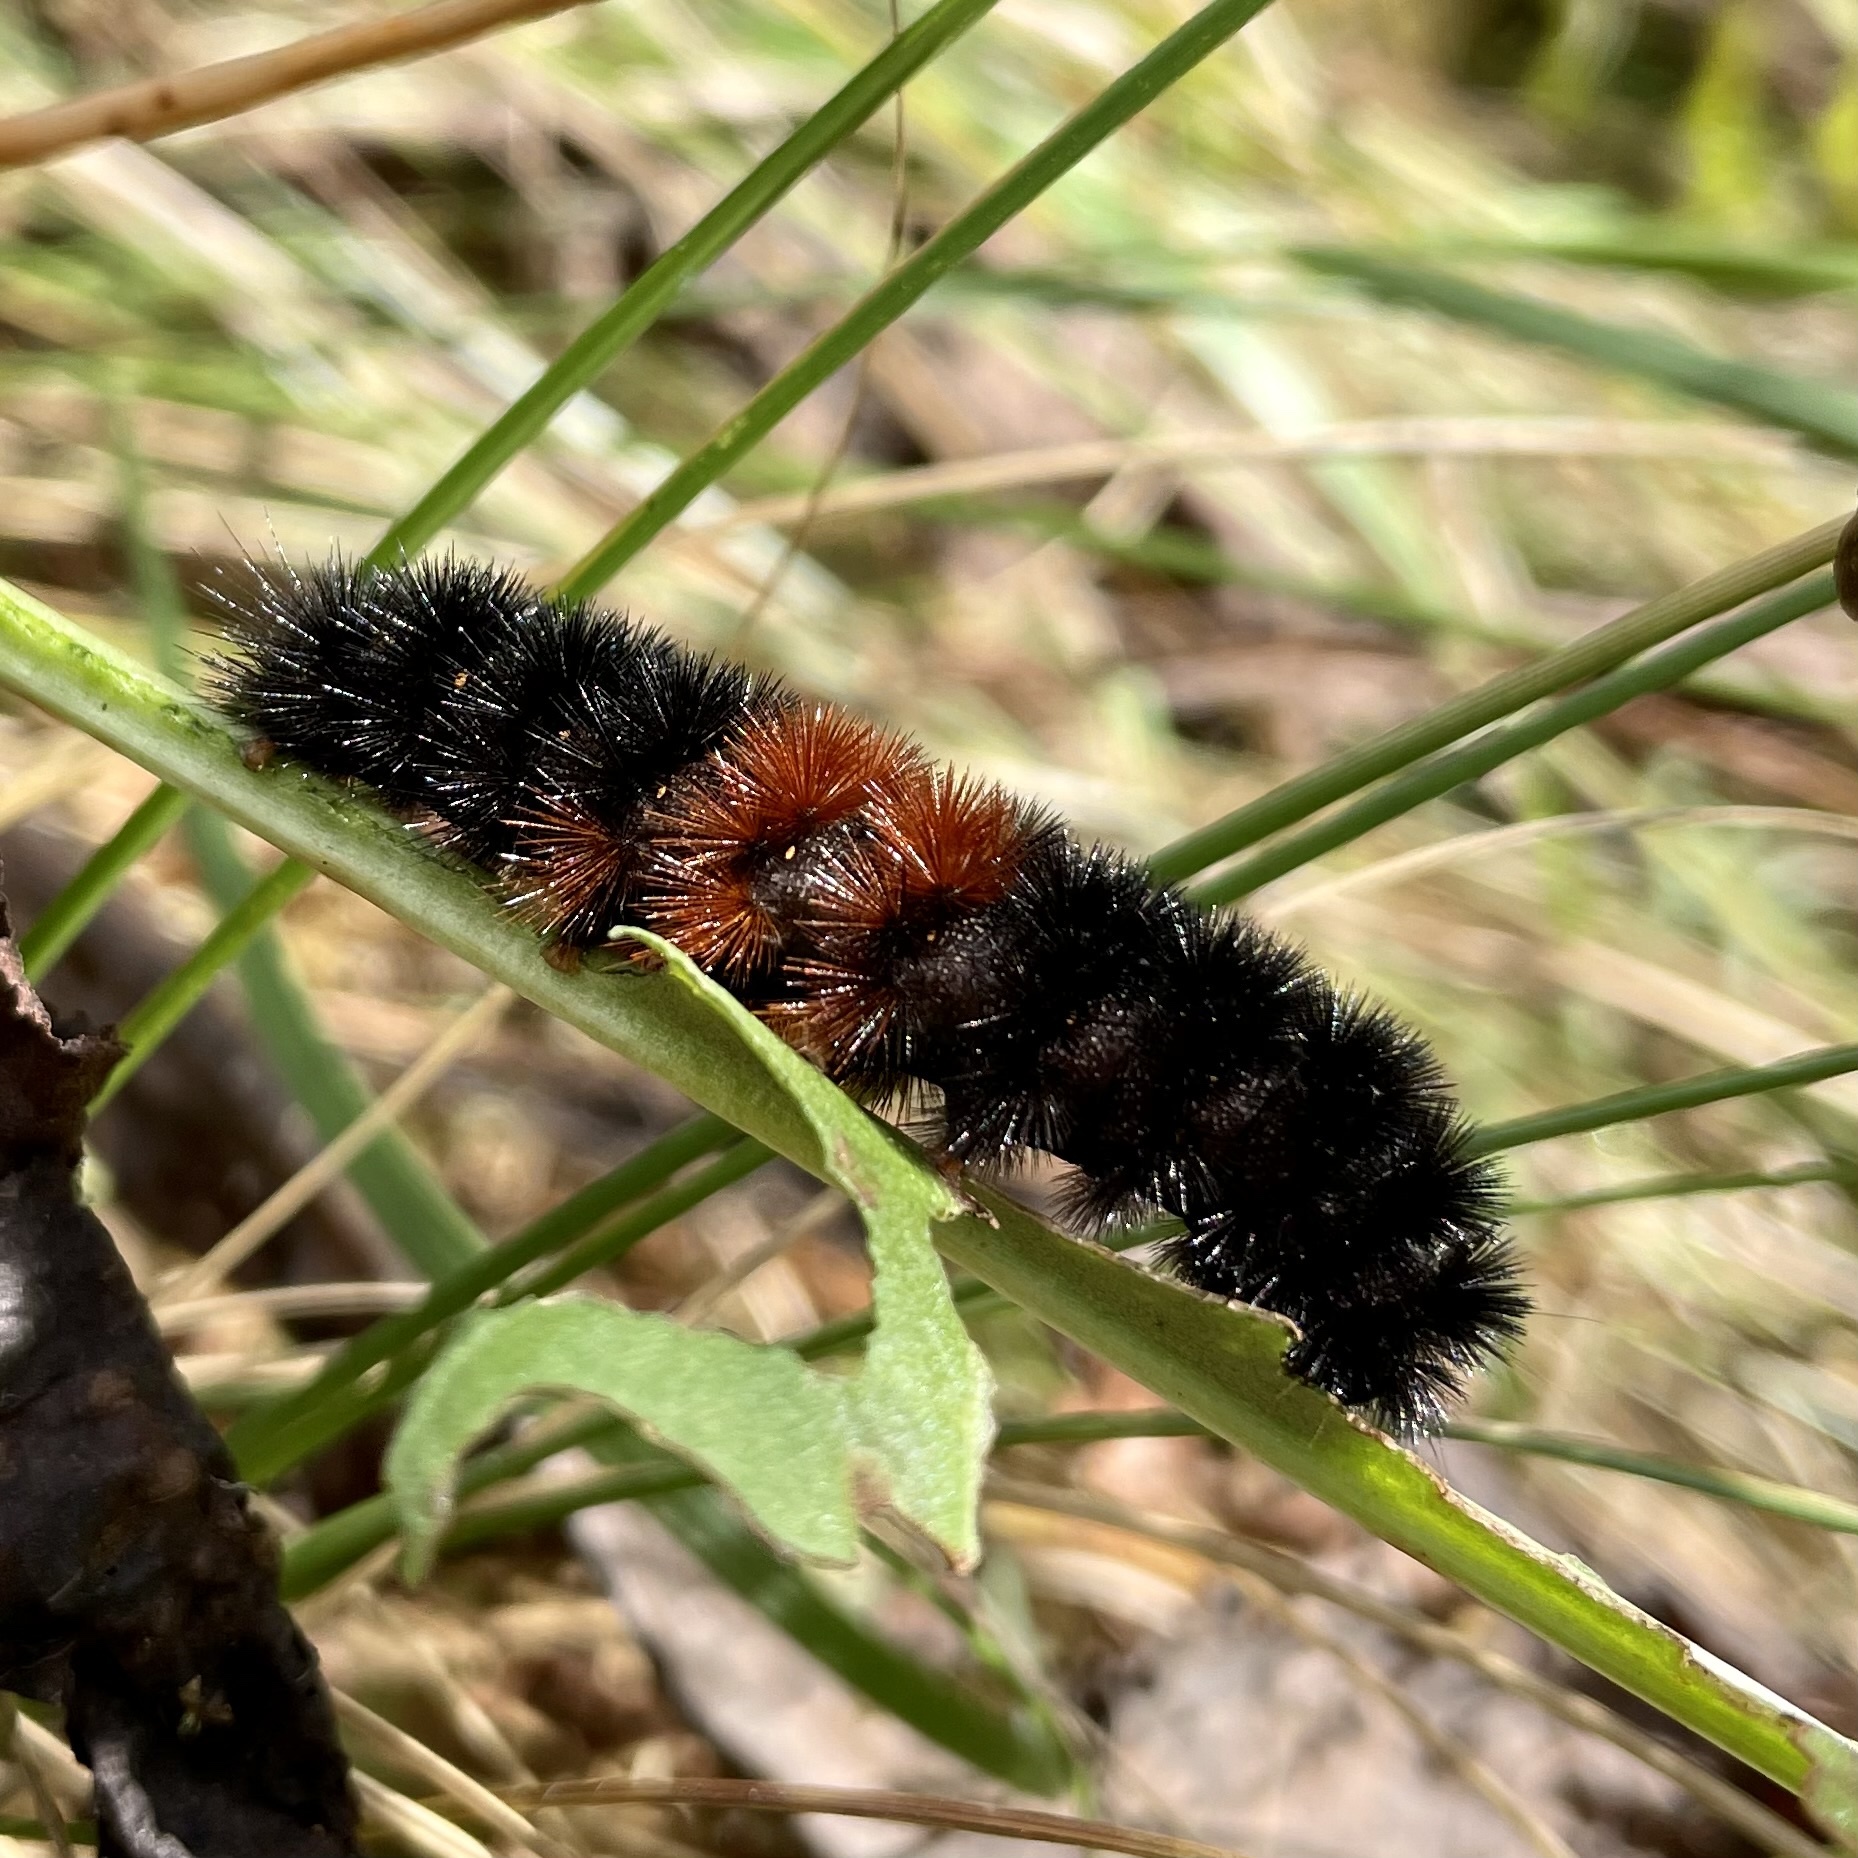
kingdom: Animalia
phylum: Arthropoda
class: Insecta
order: Lepidoptera
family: Erebidae
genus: Pyrrharctia
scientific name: Pyrrharctia isabella
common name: Isabella tiger moth
